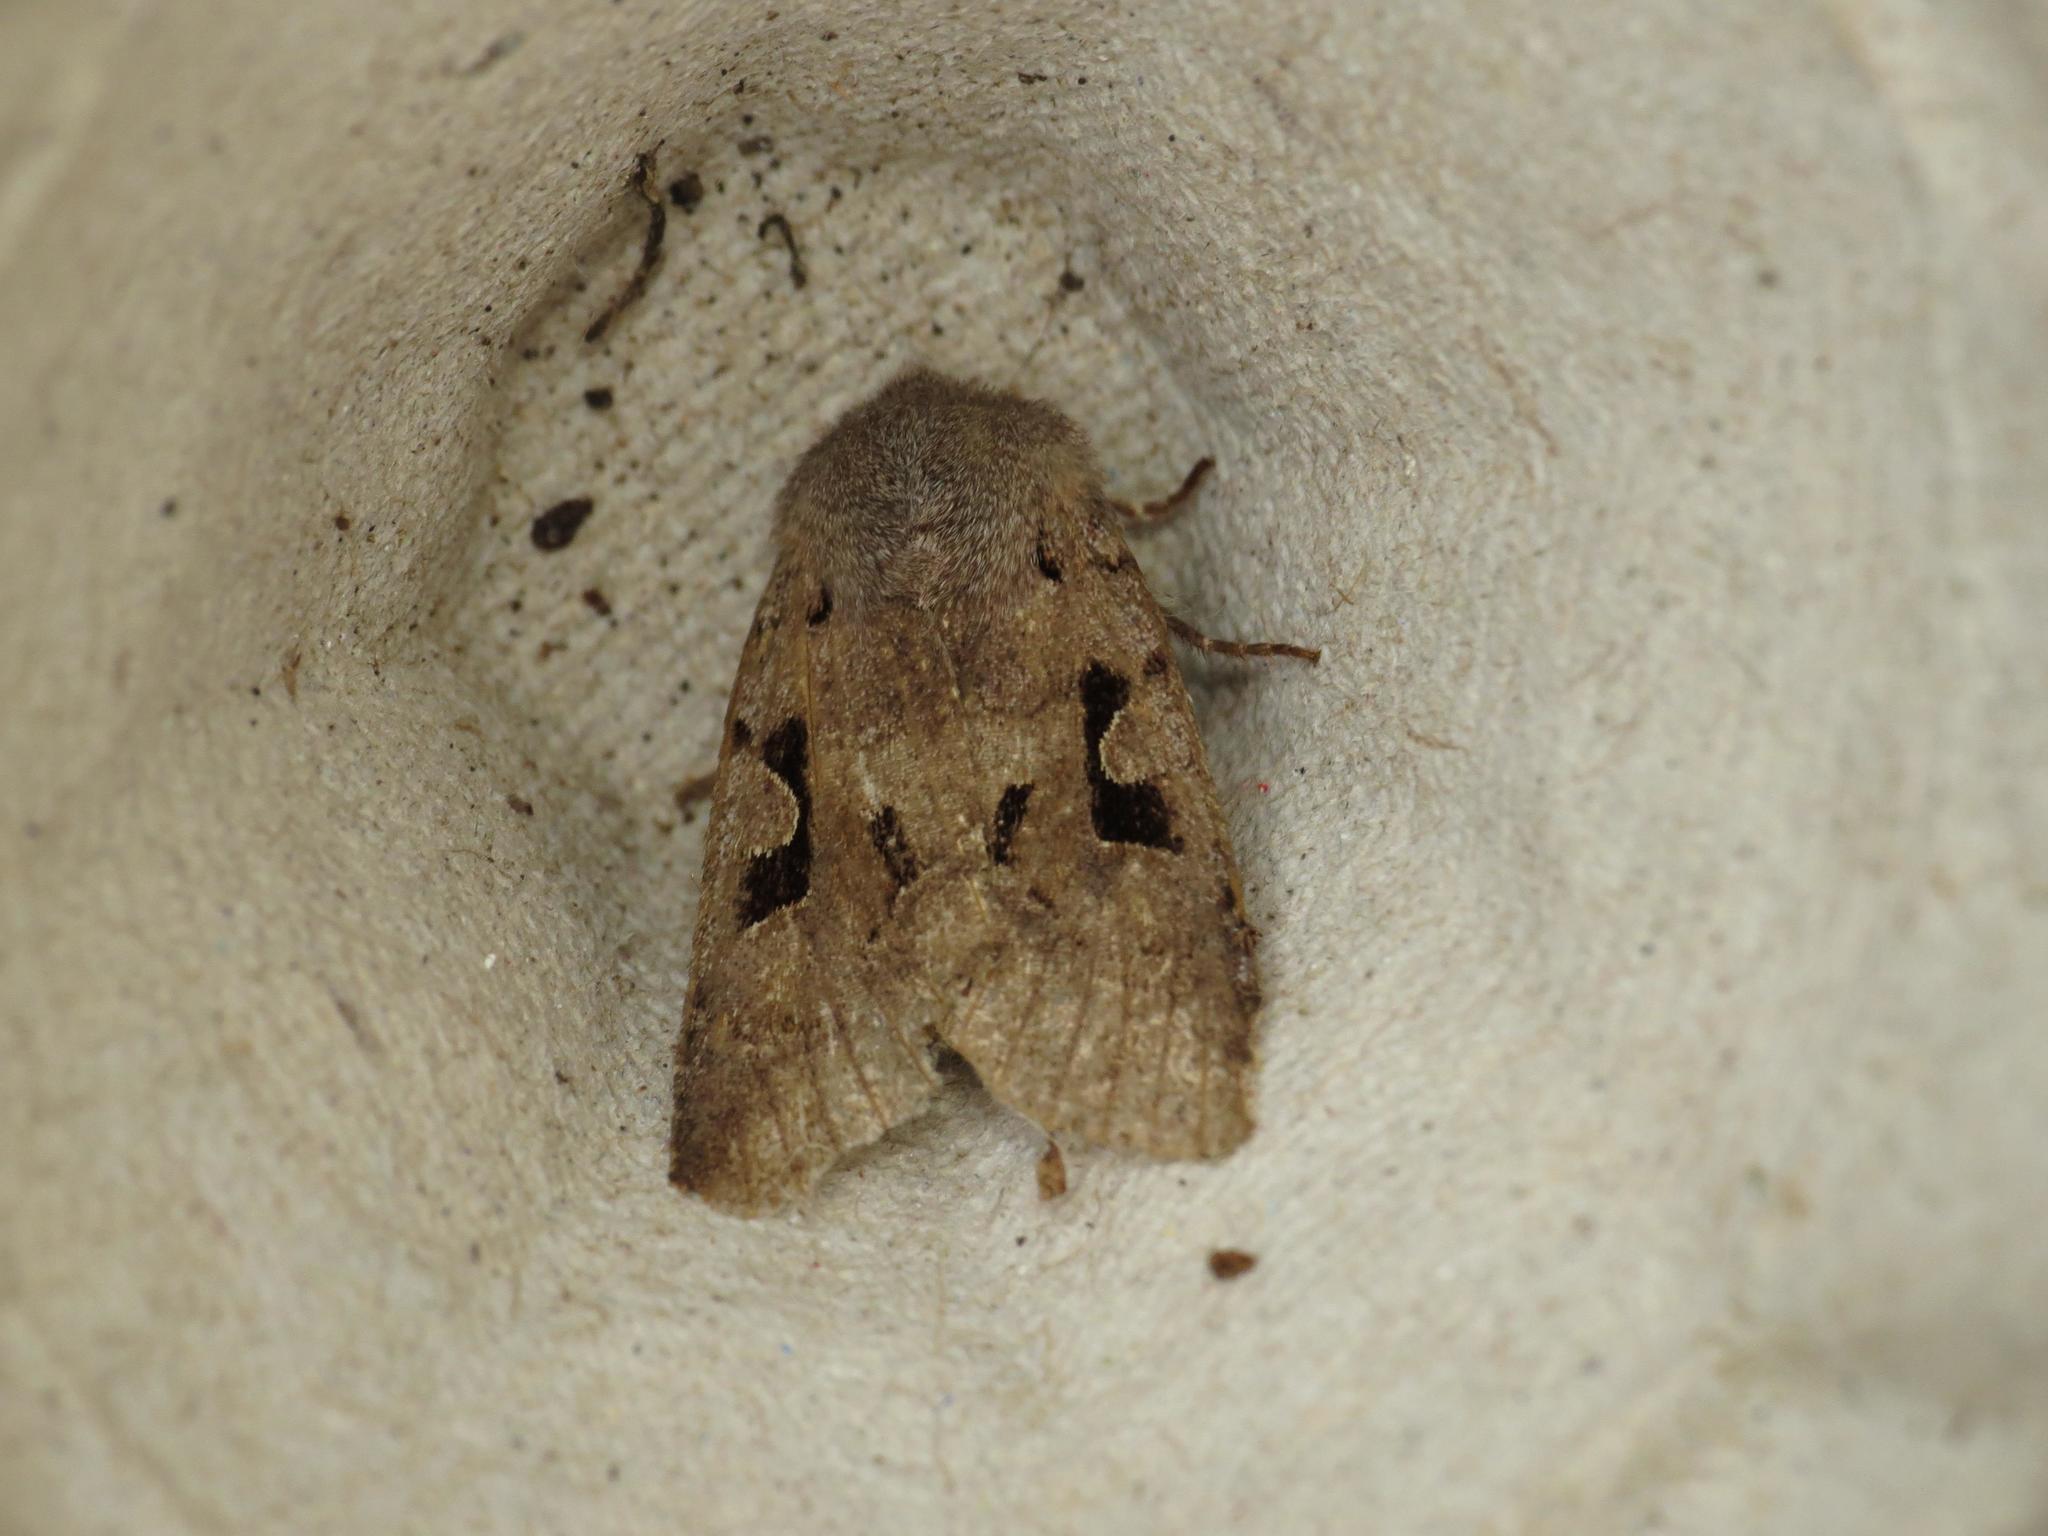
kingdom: Animalia
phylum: Arthropoda
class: Insecta
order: Lepidoptera
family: Noctuidae
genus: Orthosia
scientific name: Orthosia gothica
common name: Hebrew character
